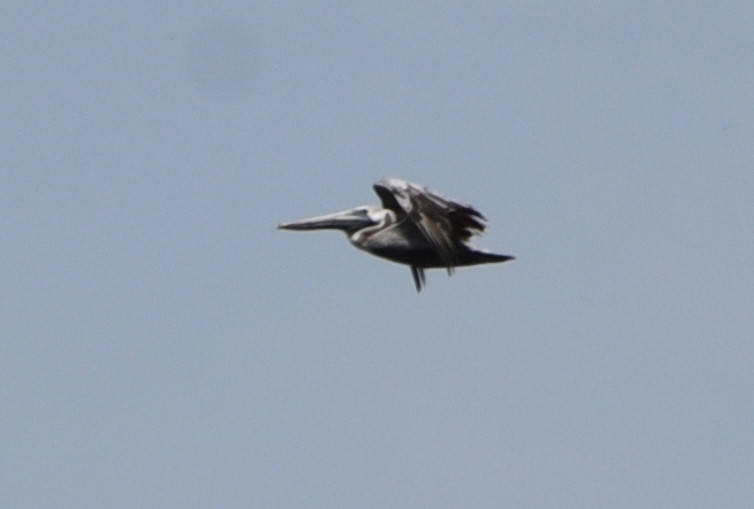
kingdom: Animalia
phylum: Chordata
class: Aves
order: Pelecaniformes
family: Pelecanidae
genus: Pelecanus
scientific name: Pelecanus occidentalis
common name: Brown pelican
